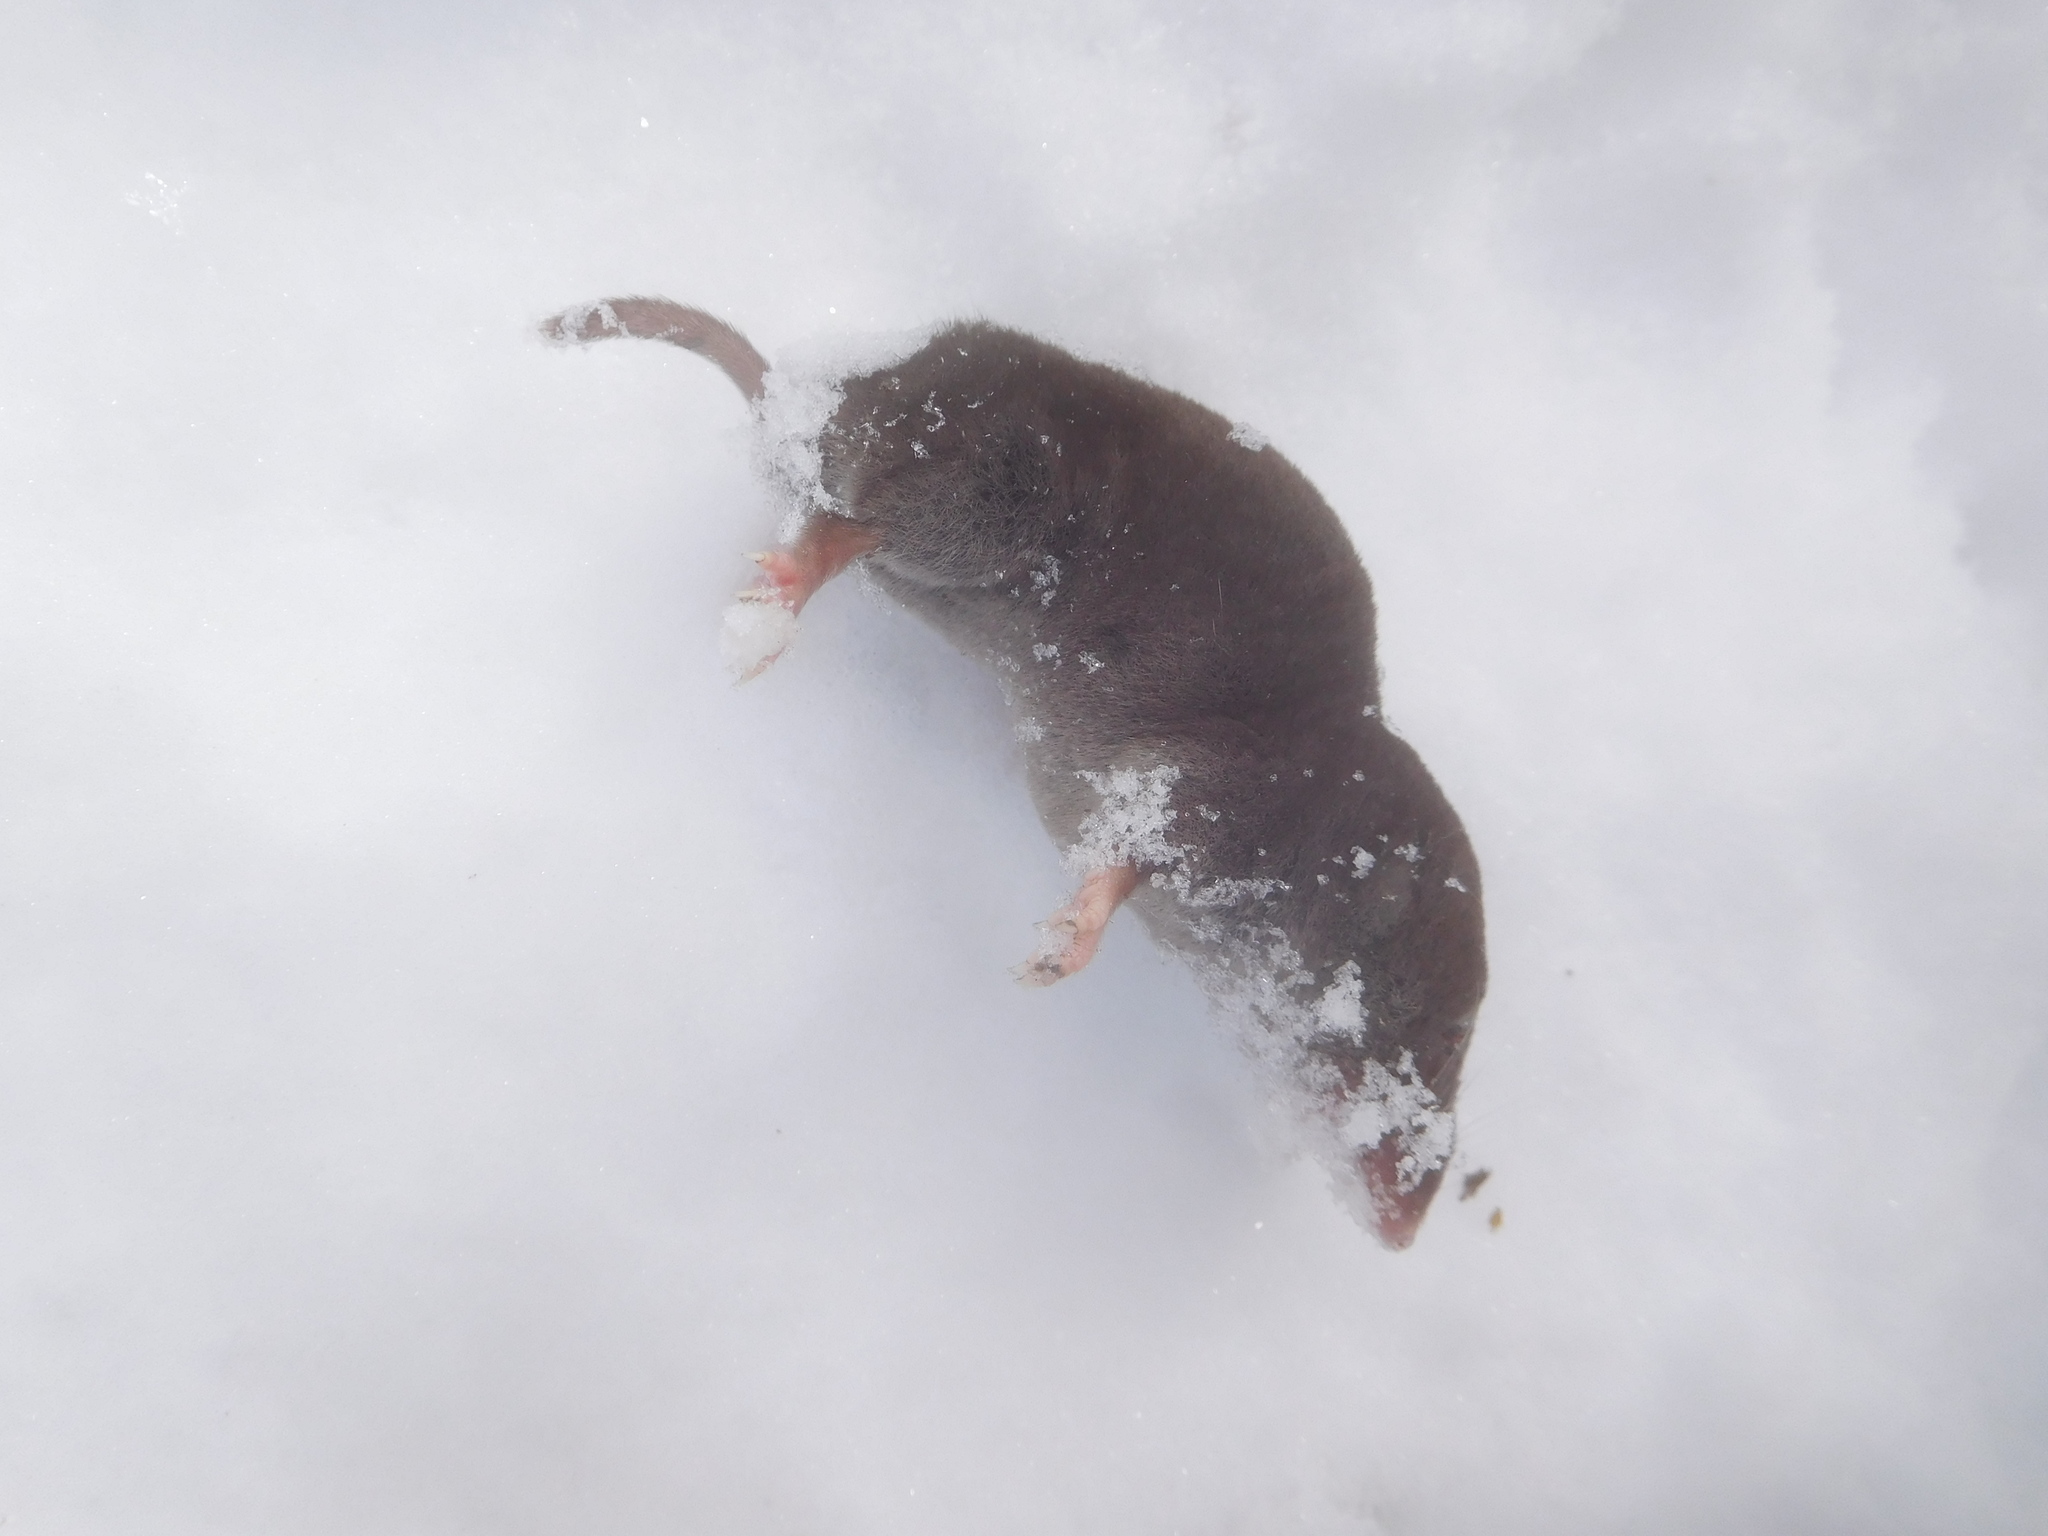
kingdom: Animalia
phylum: Chordata
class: Mammalia
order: Soricomorpha
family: Soricidae
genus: Blarina
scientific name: Blarina brevicauda
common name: Northern short-tailed shrew
